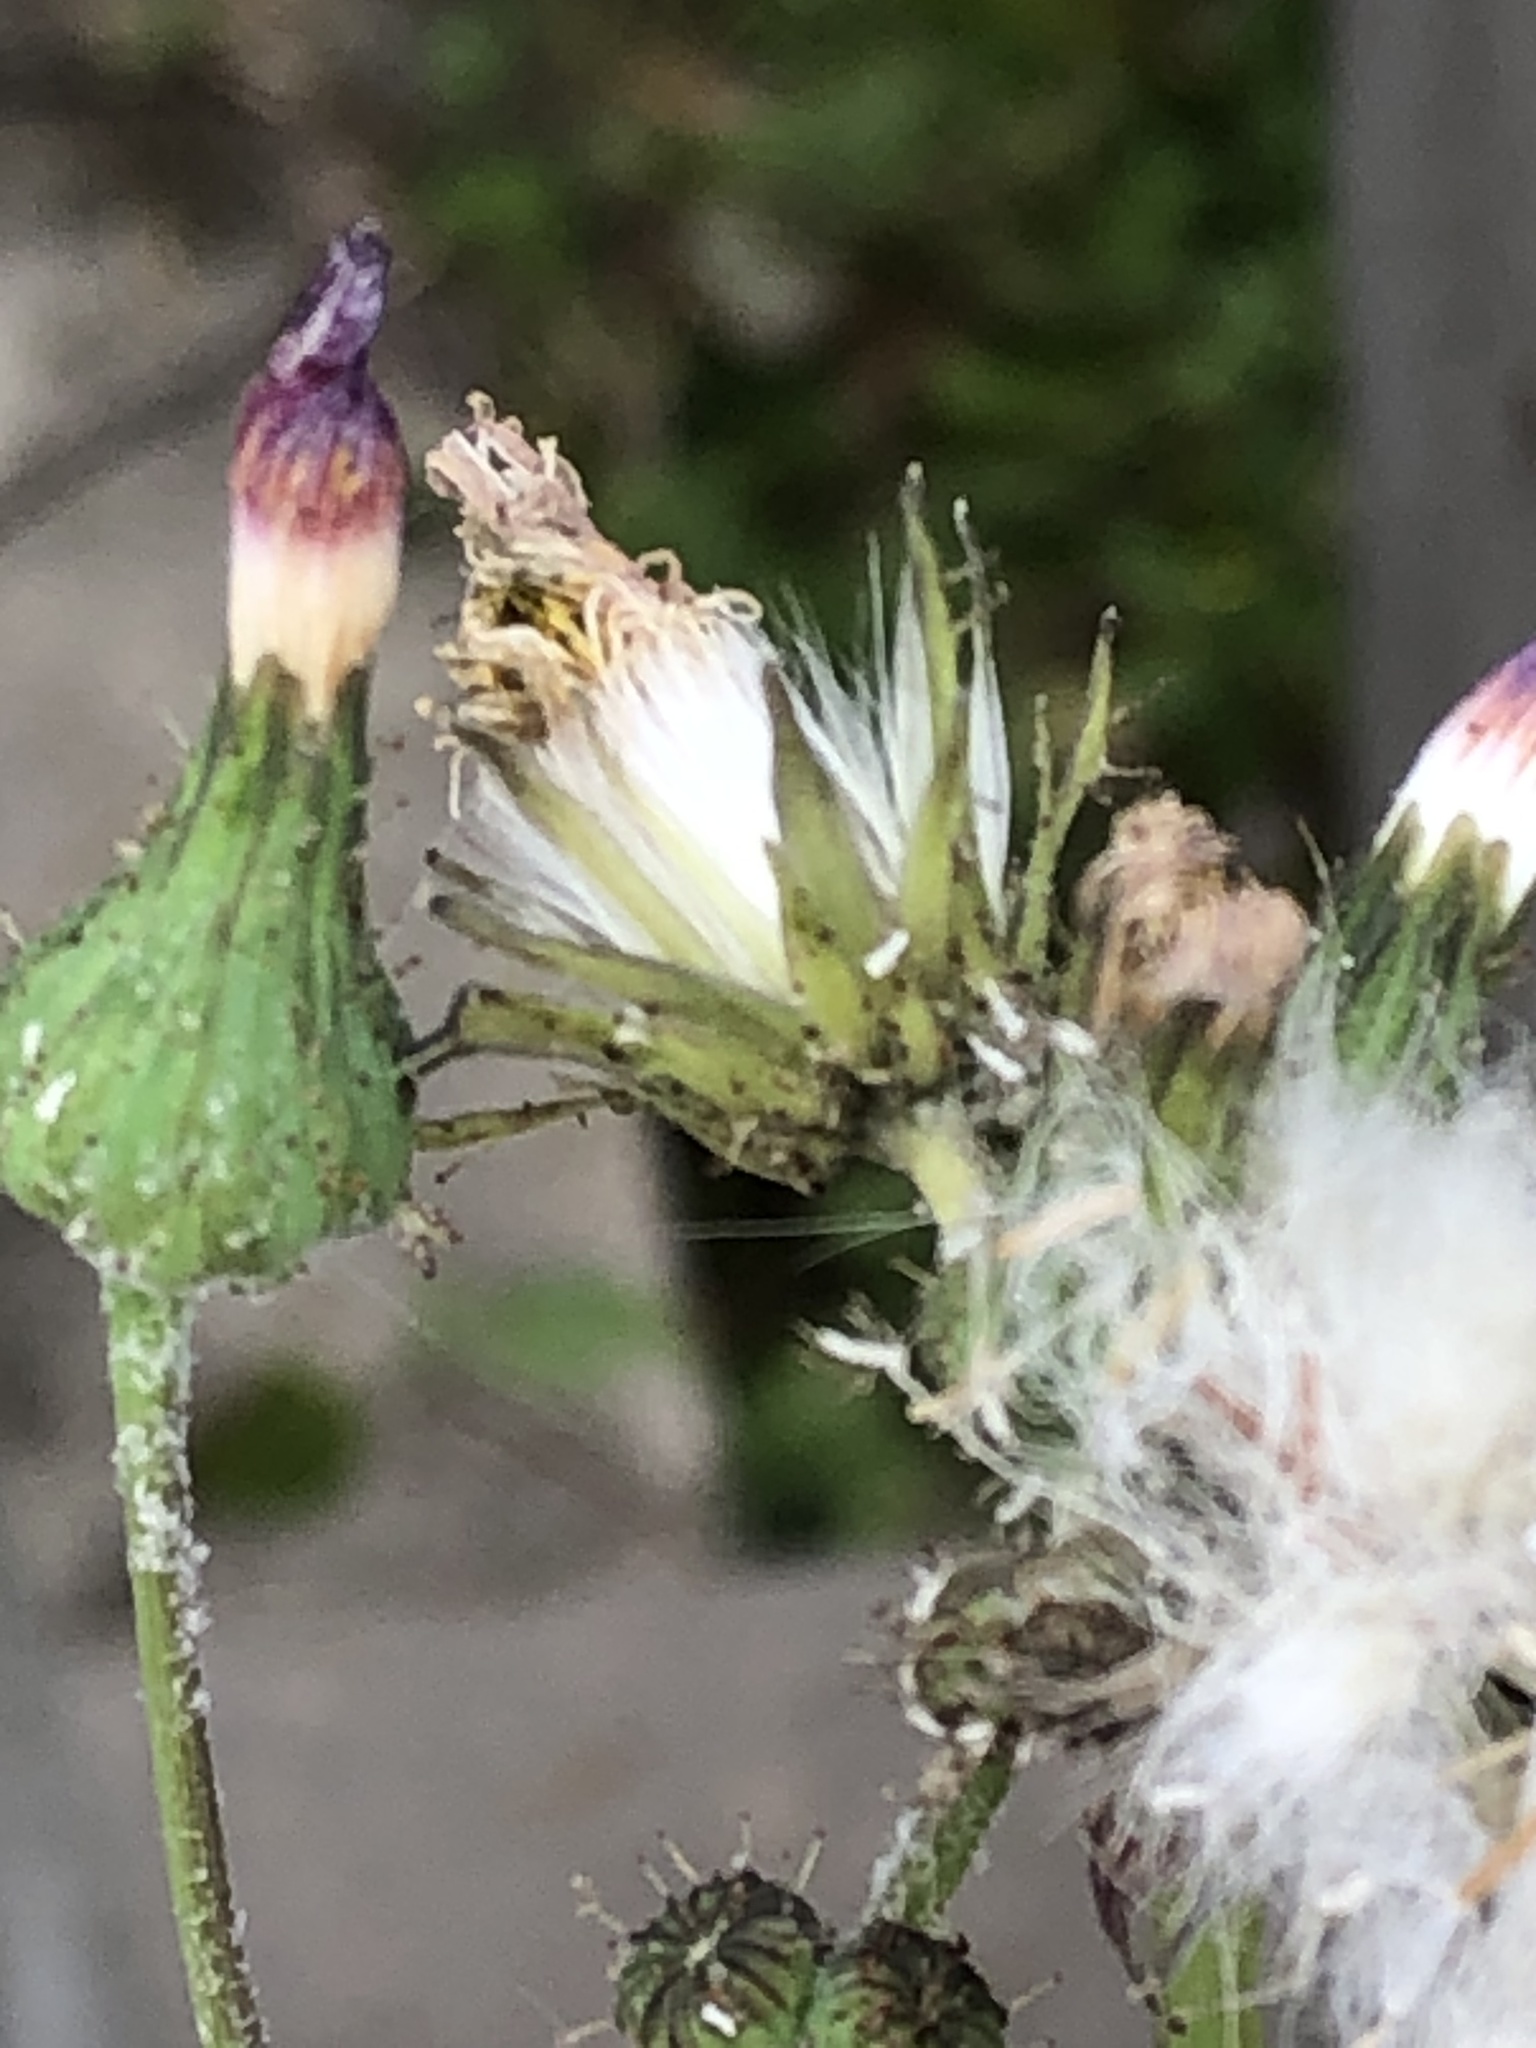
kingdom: Plantae
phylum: Tracheophyta
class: Magnoliopsida
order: Asterales
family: Asteraceae
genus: Sonchus
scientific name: Sonchus oleraceus
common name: Common sowthistle
